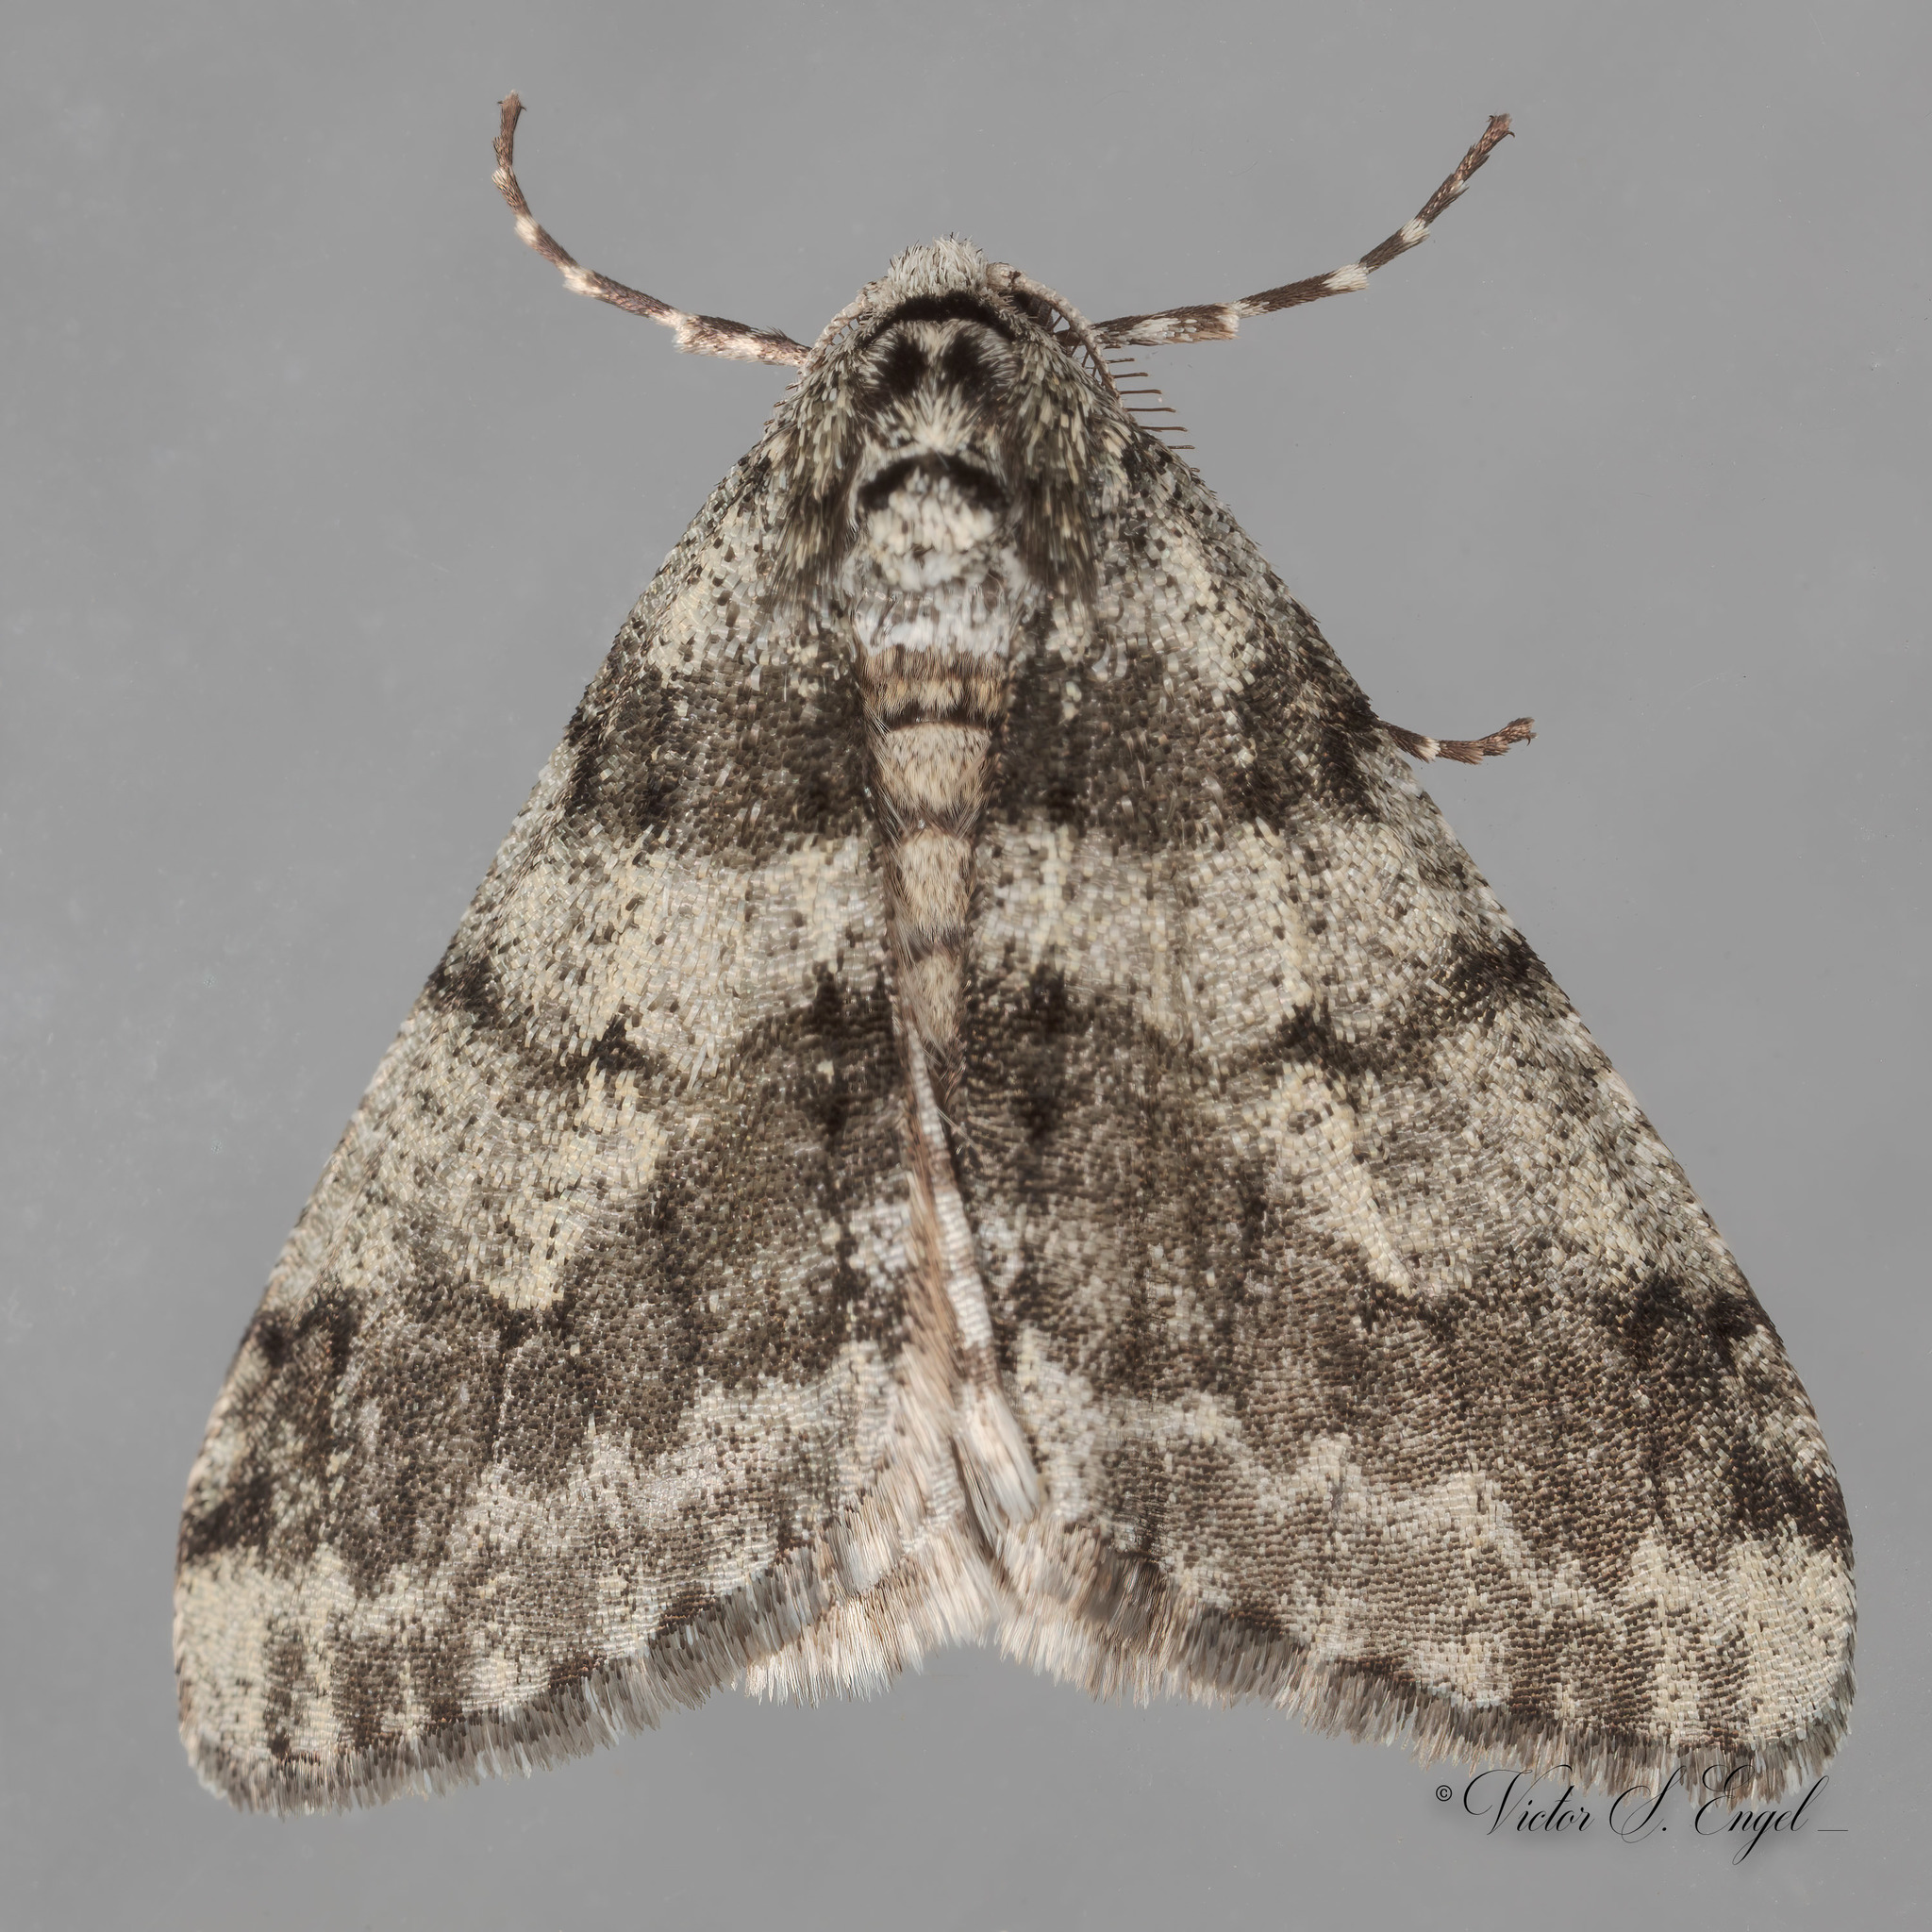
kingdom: Animalia
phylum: Arthropoda
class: Insecta
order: Lepidoptera
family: Geometridae
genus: Phigalia
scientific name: Phigalia strigataria
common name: Small phigalia
